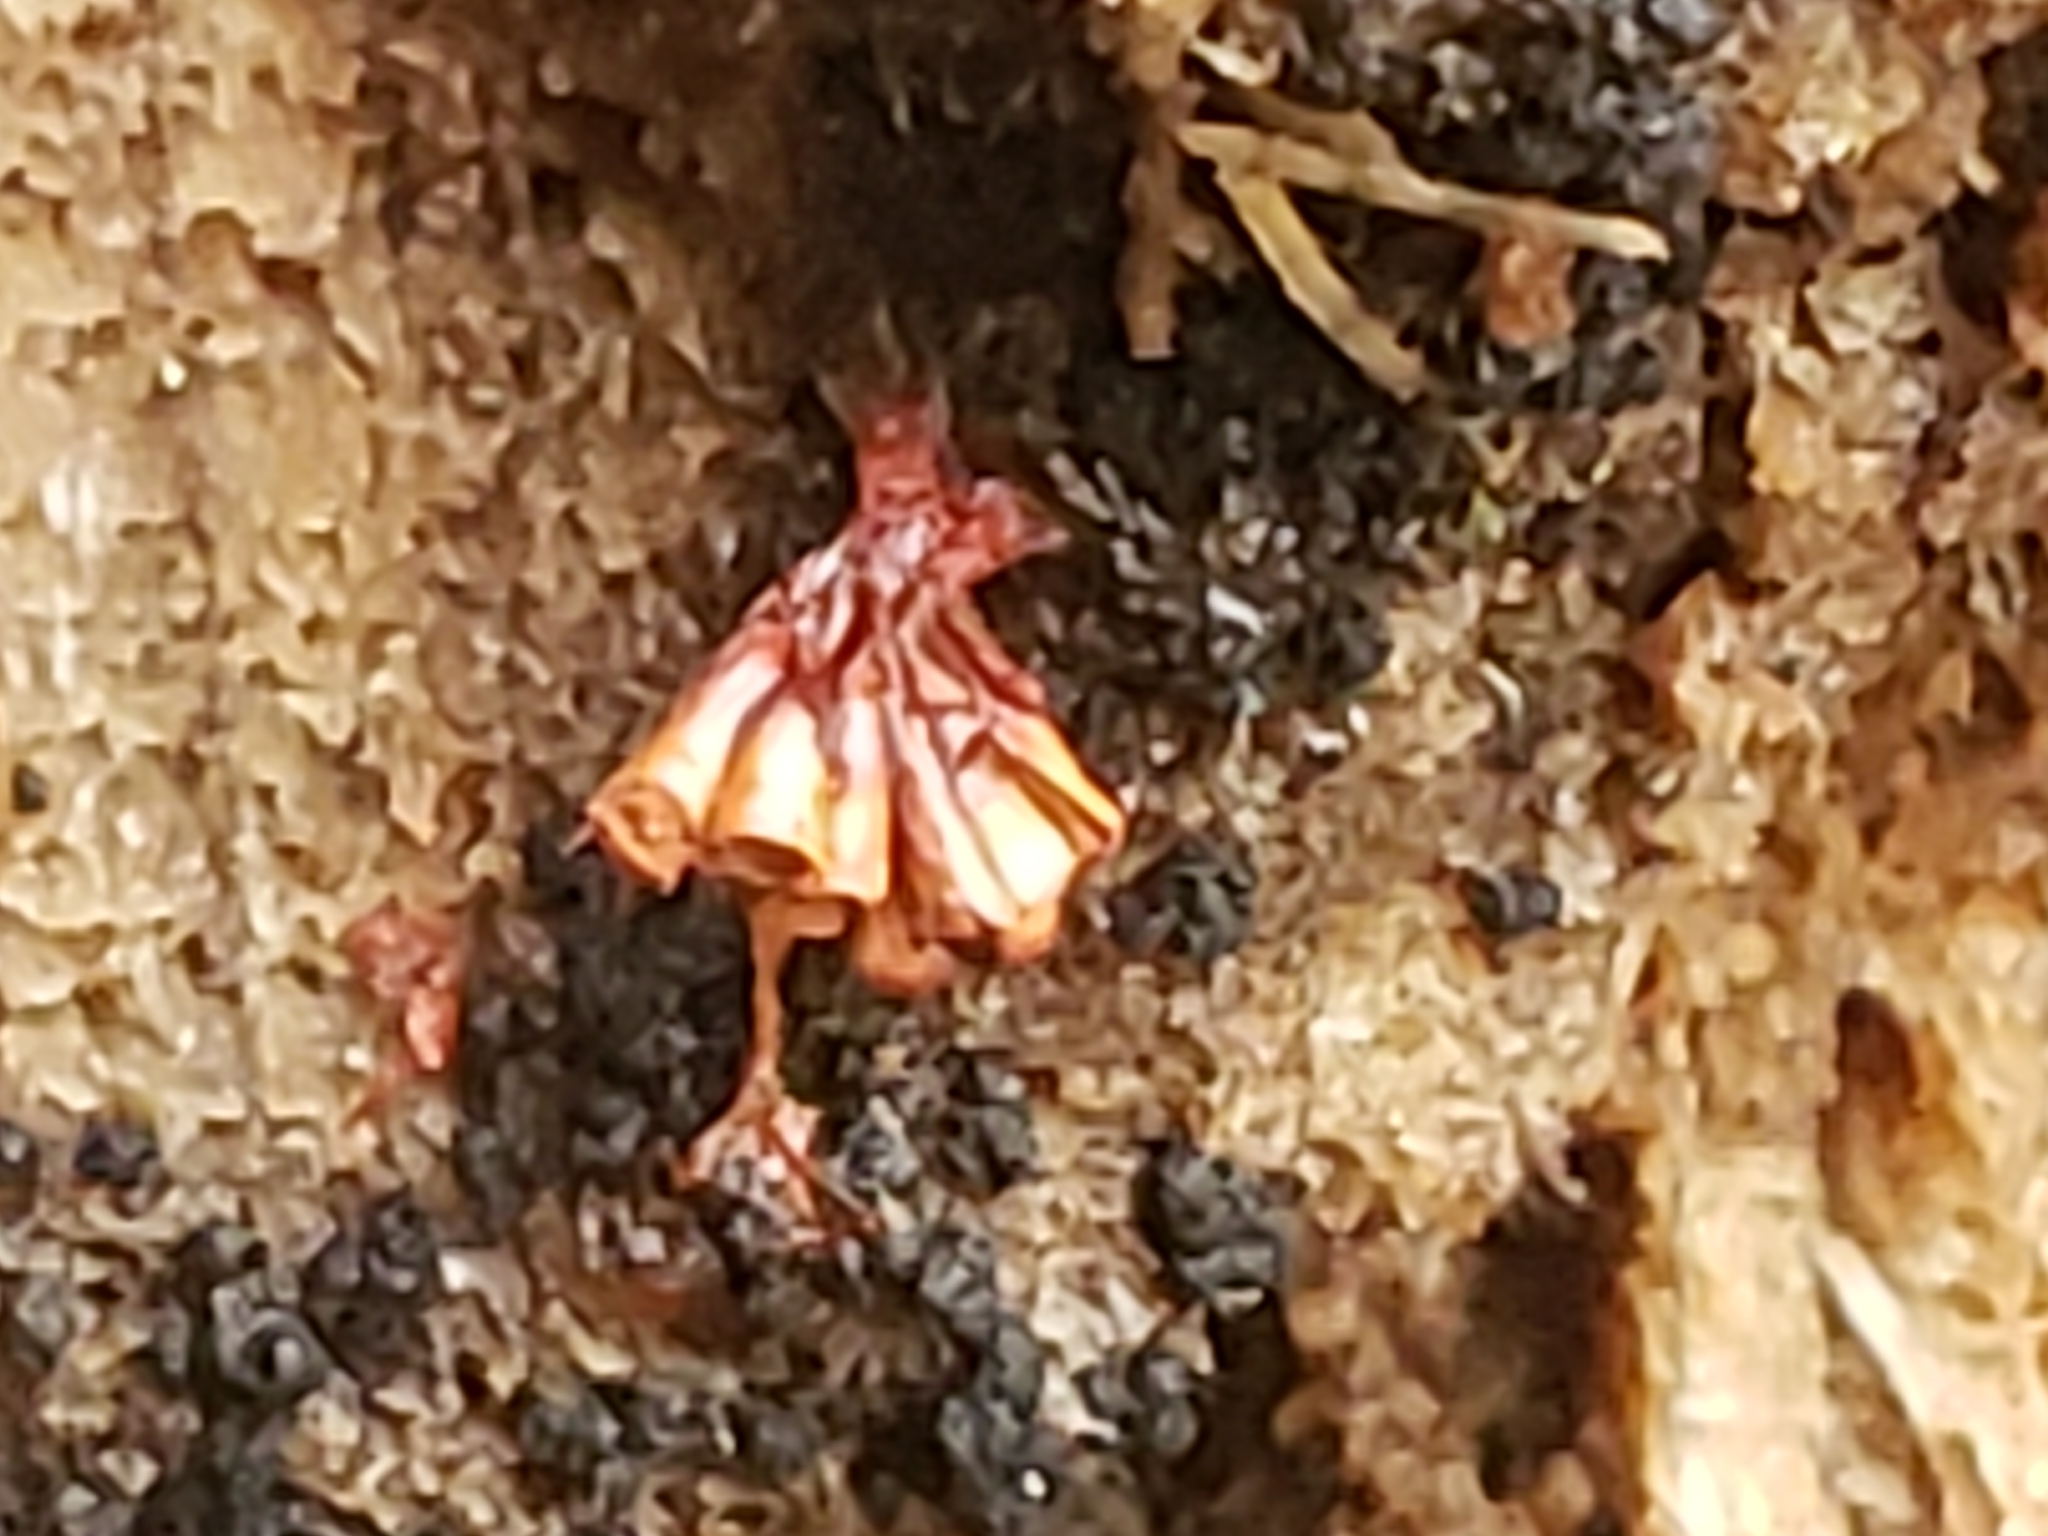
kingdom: Protozoa
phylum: Mycetozoa
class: Myxomycetes
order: Trichiales
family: Trichiaceae
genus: Metatrichia
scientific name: Metatrichia vesparia
